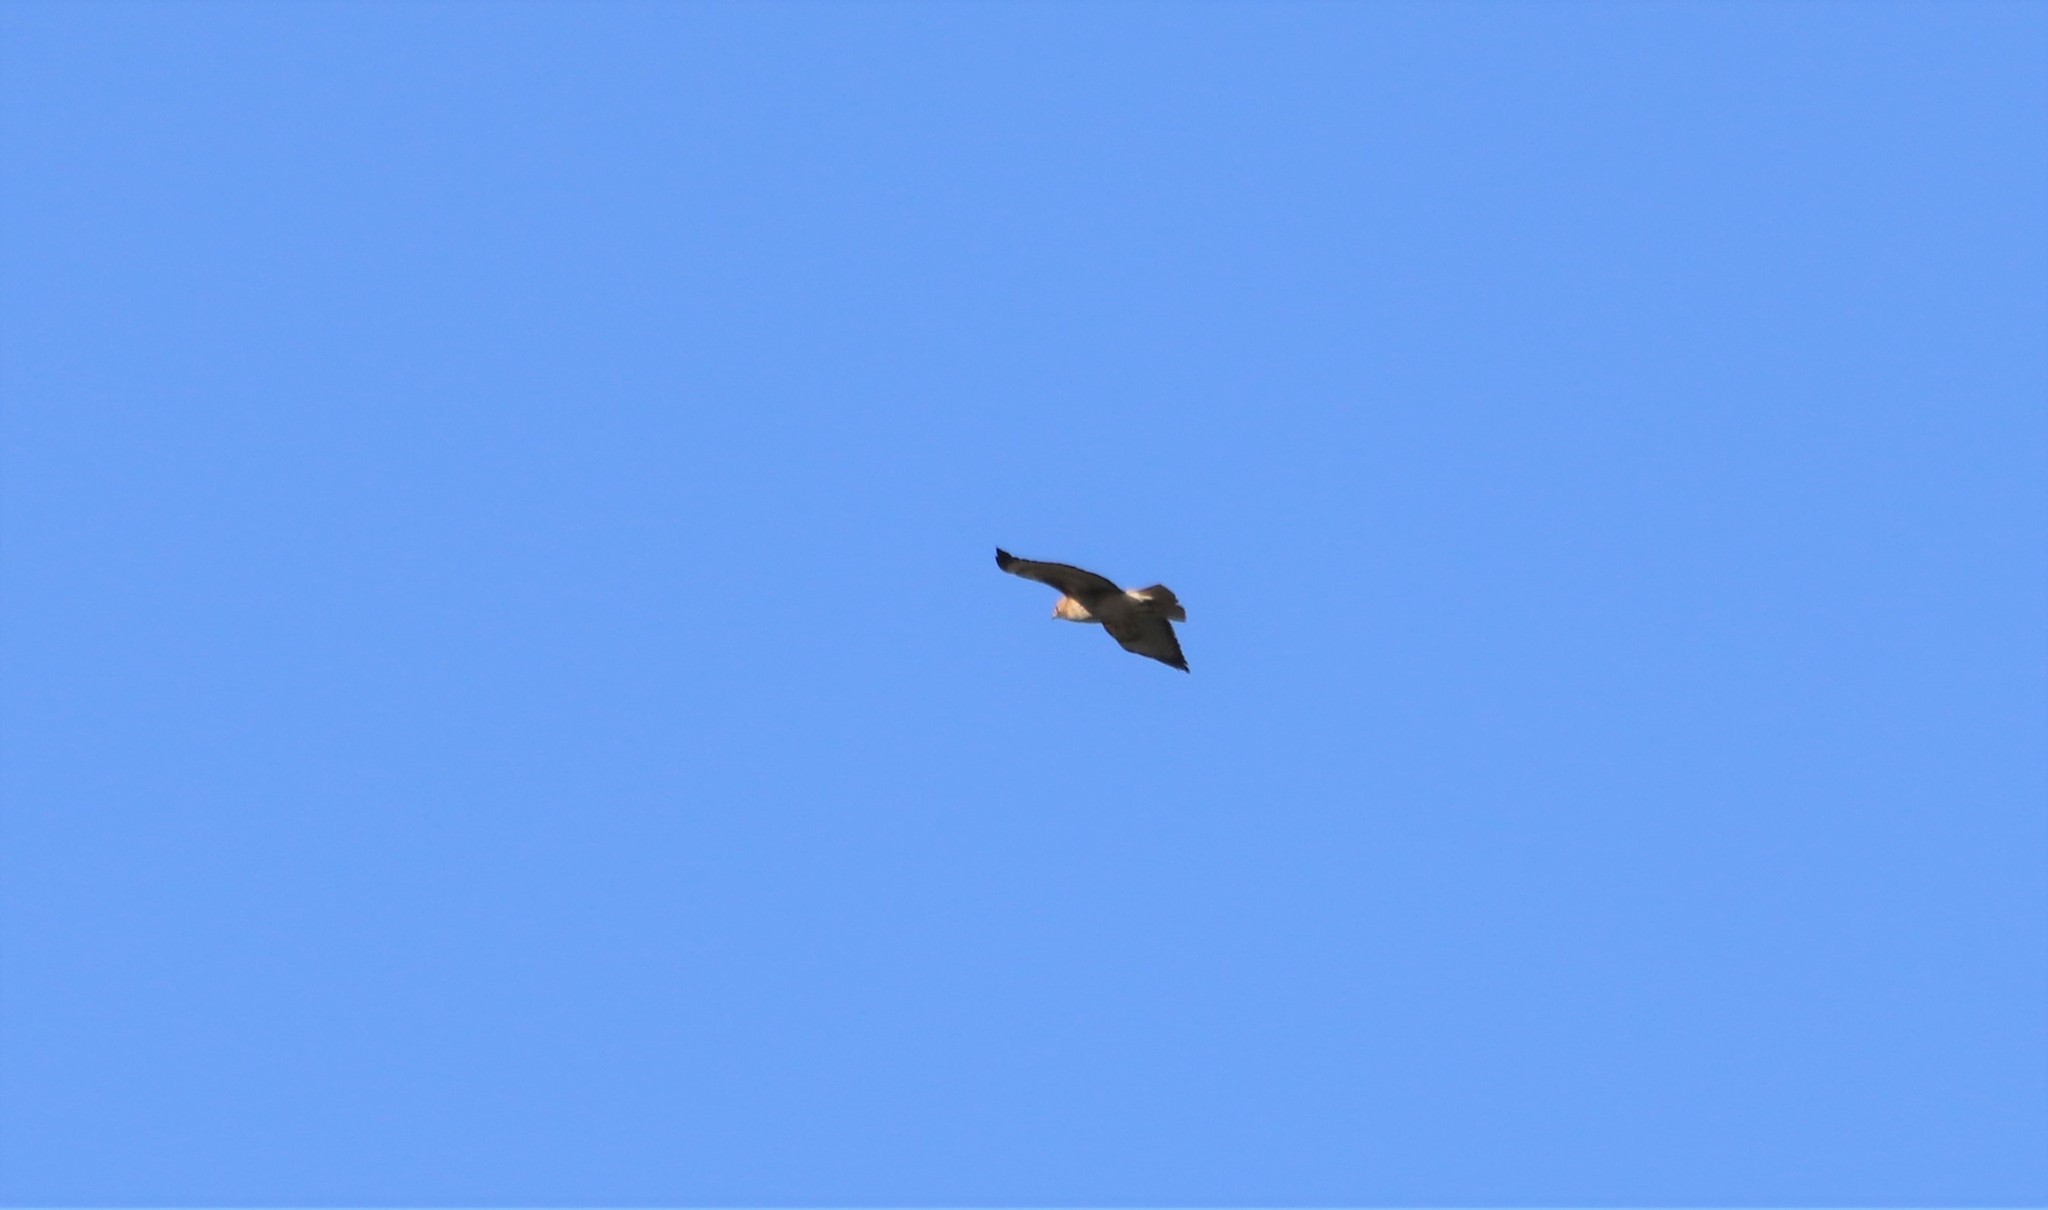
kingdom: Animalia
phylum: Chordata
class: Aves
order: Accipitriformes
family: Accipitridae
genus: Buteo
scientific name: Buteo jamaicensis
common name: Red-tailed hawk
